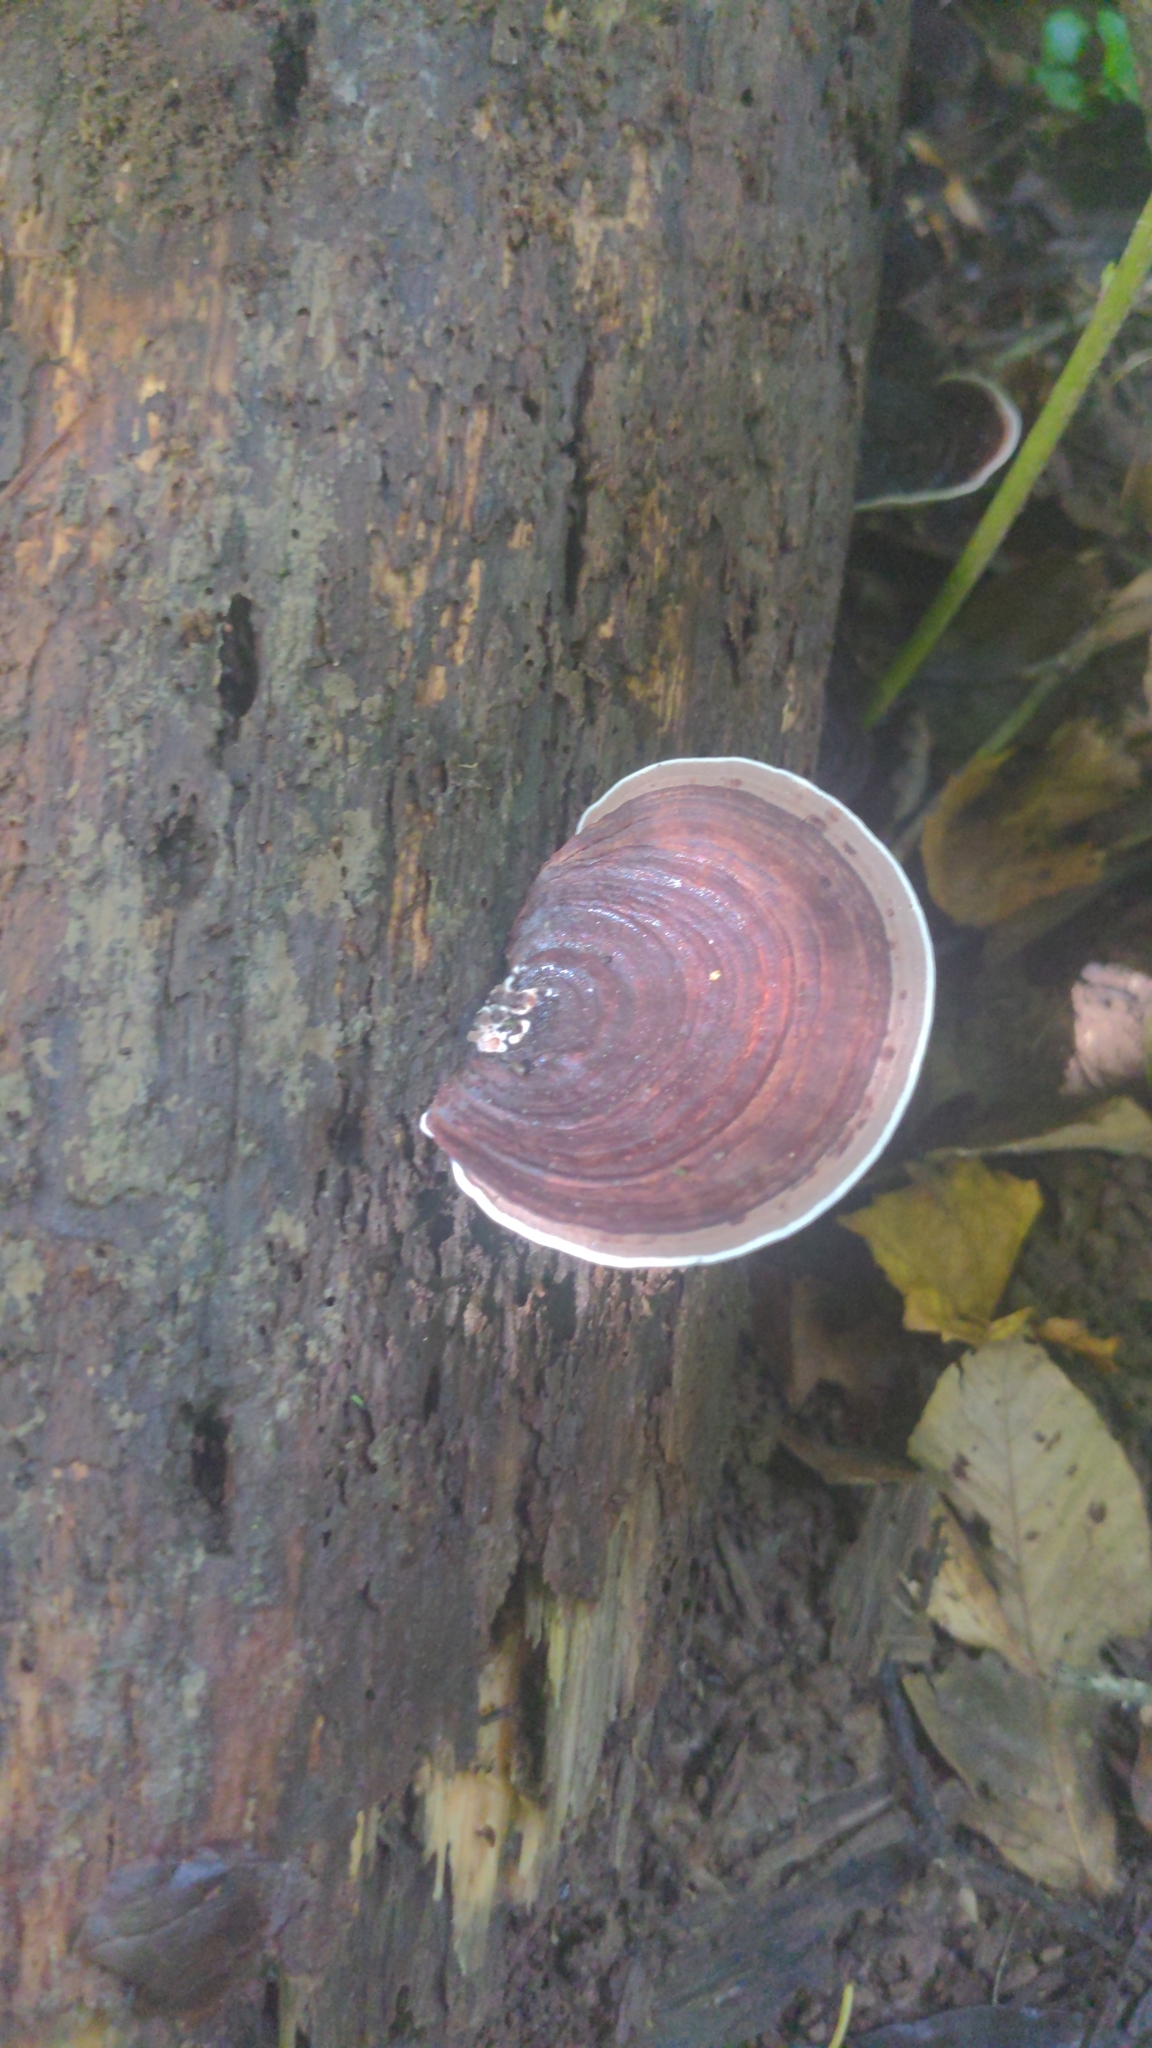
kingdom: Fungi
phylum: Basidiomycota
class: Agaricomycetes
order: Polyporales
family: Steccherinaceae
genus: Nigroporus
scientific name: Nigroporus vinosus
